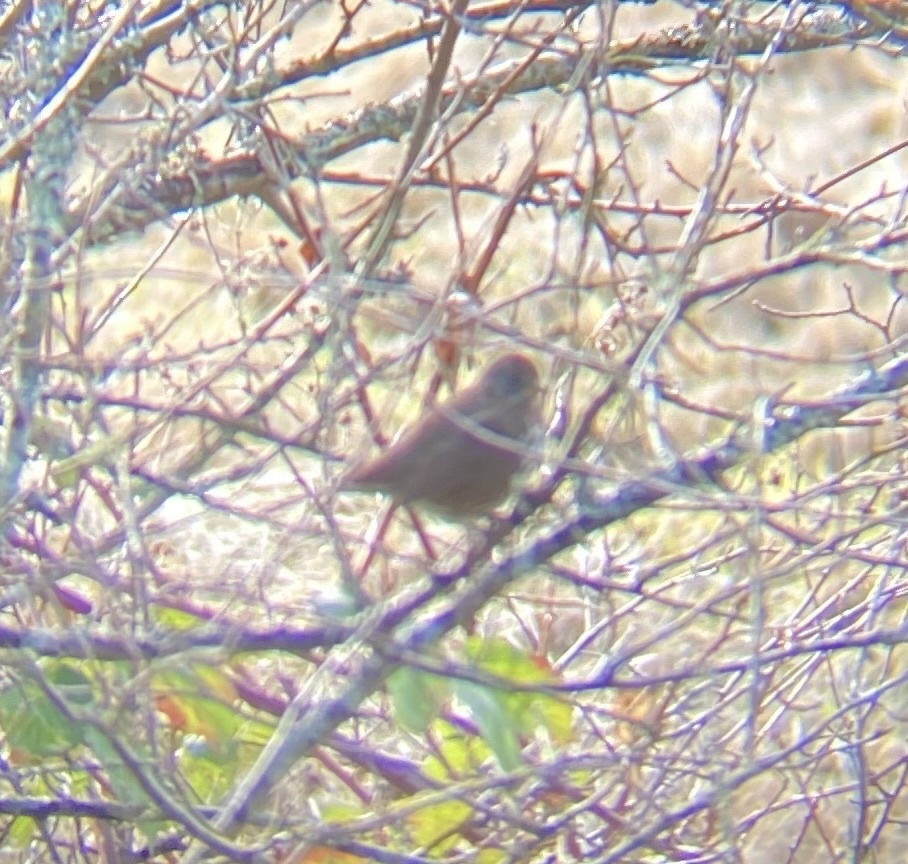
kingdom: Animalia
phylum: Chordata
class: Aves
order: Passeriformes
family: Passerellidae
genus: Passerella
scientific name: Passerella iliaca
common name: Fox sparrow
